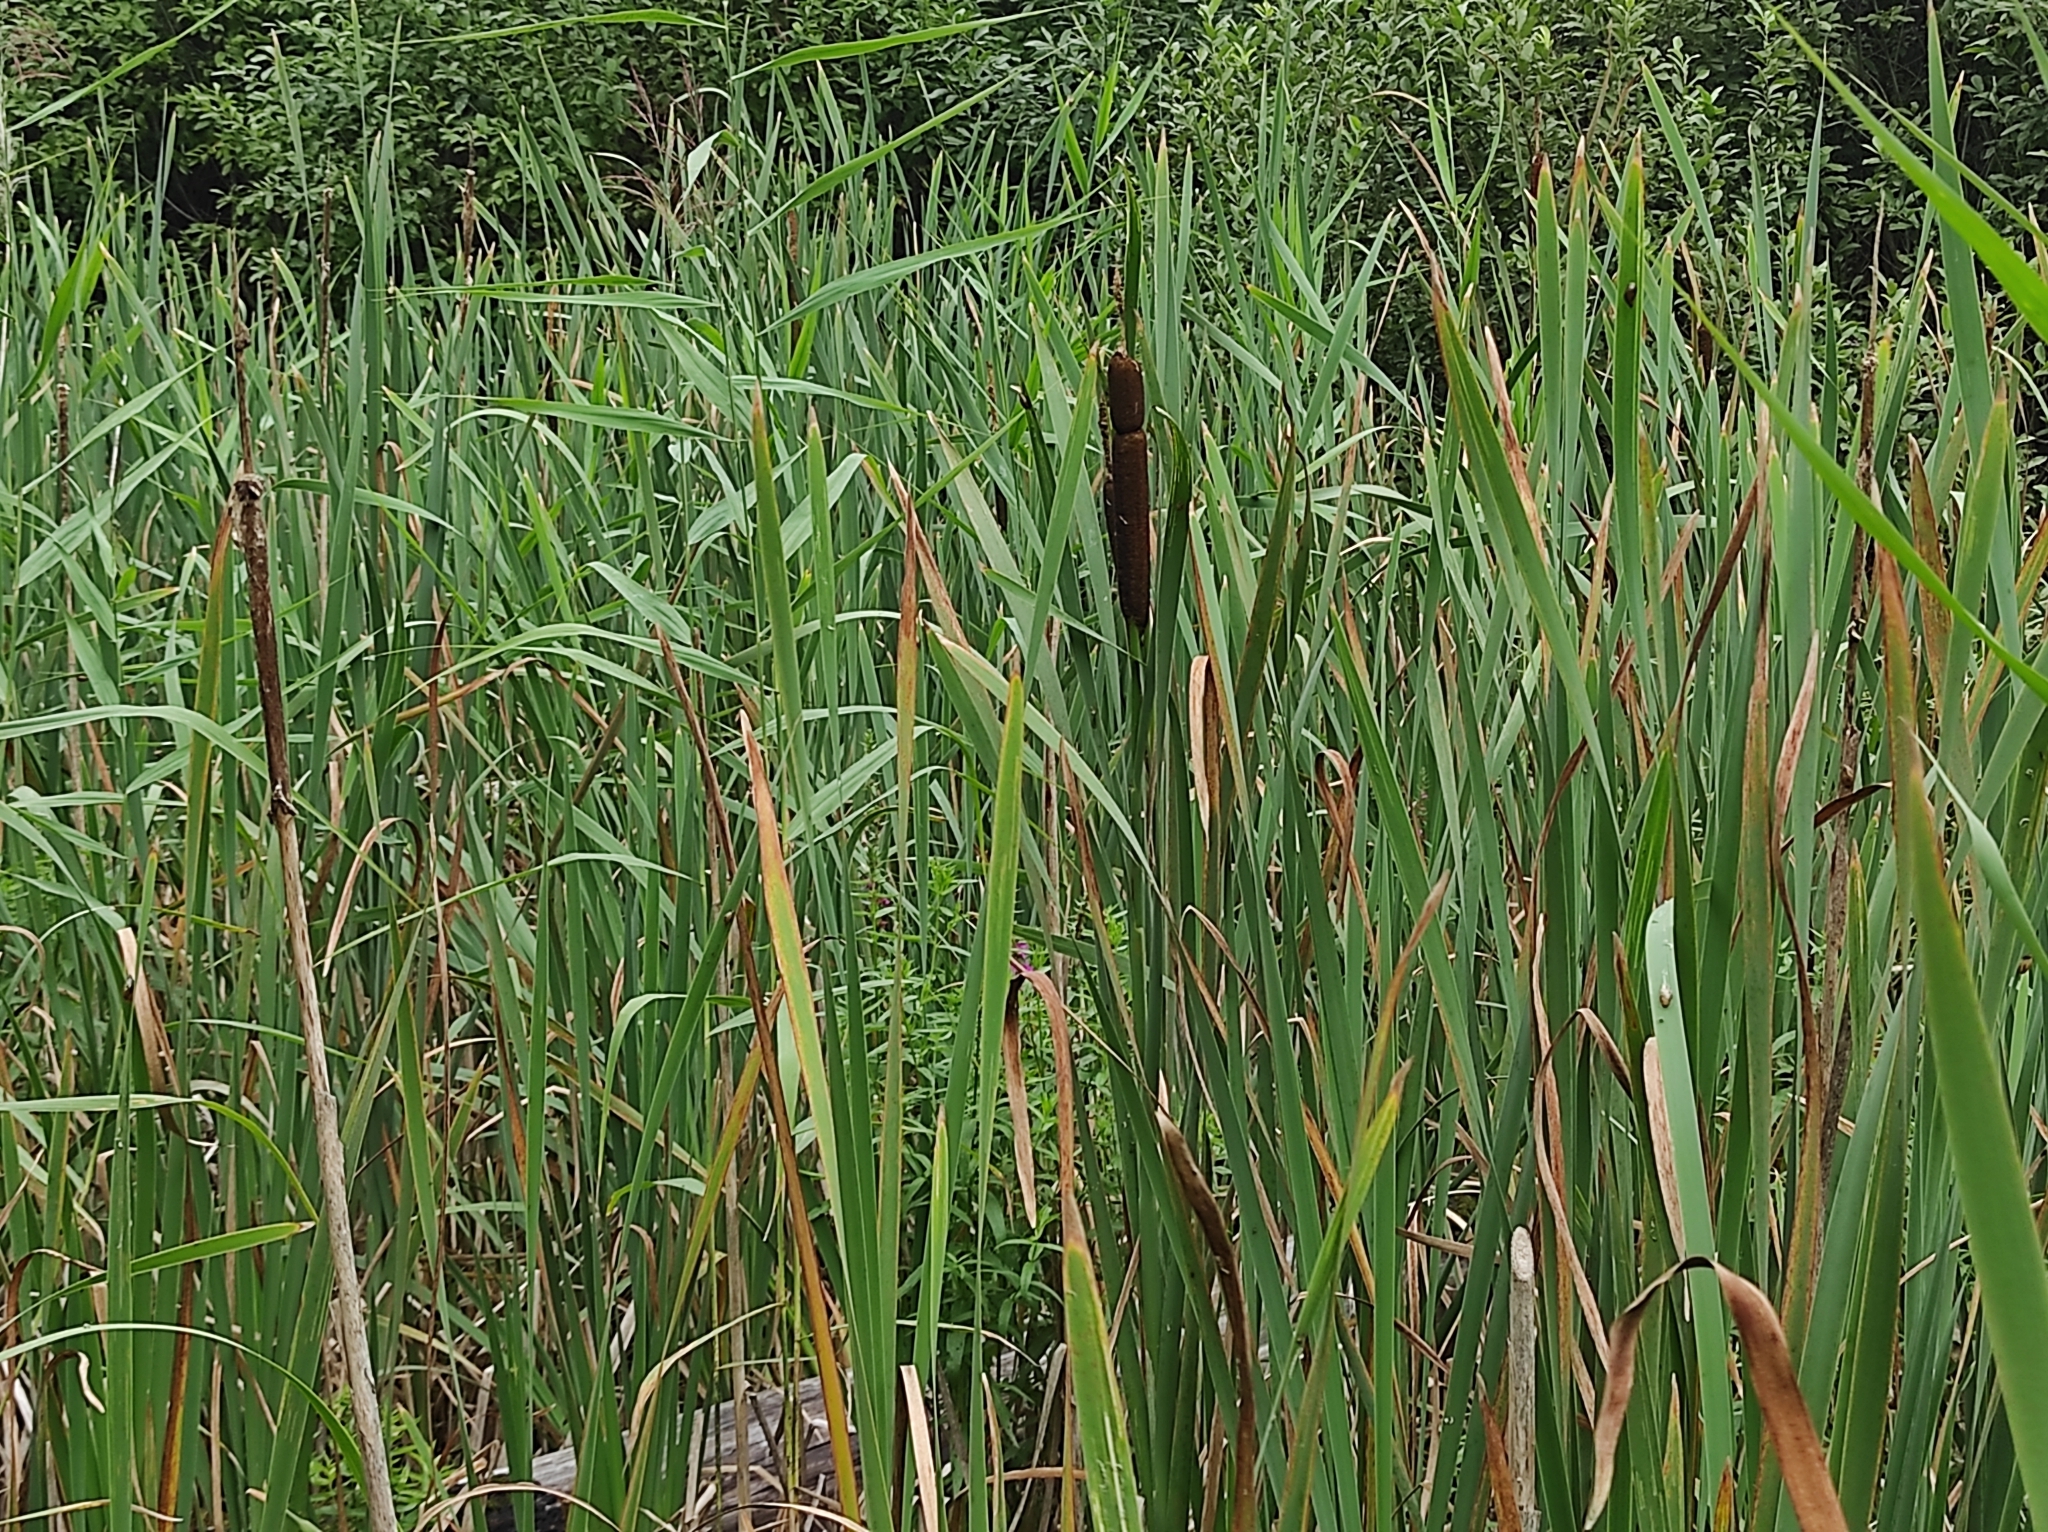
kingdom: Plantae
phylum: Tracheophyta
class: Liliopsida
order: Poales
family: Typhaceae
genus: Typha
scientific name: Typha latifolia
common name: Broadleaf cattail
